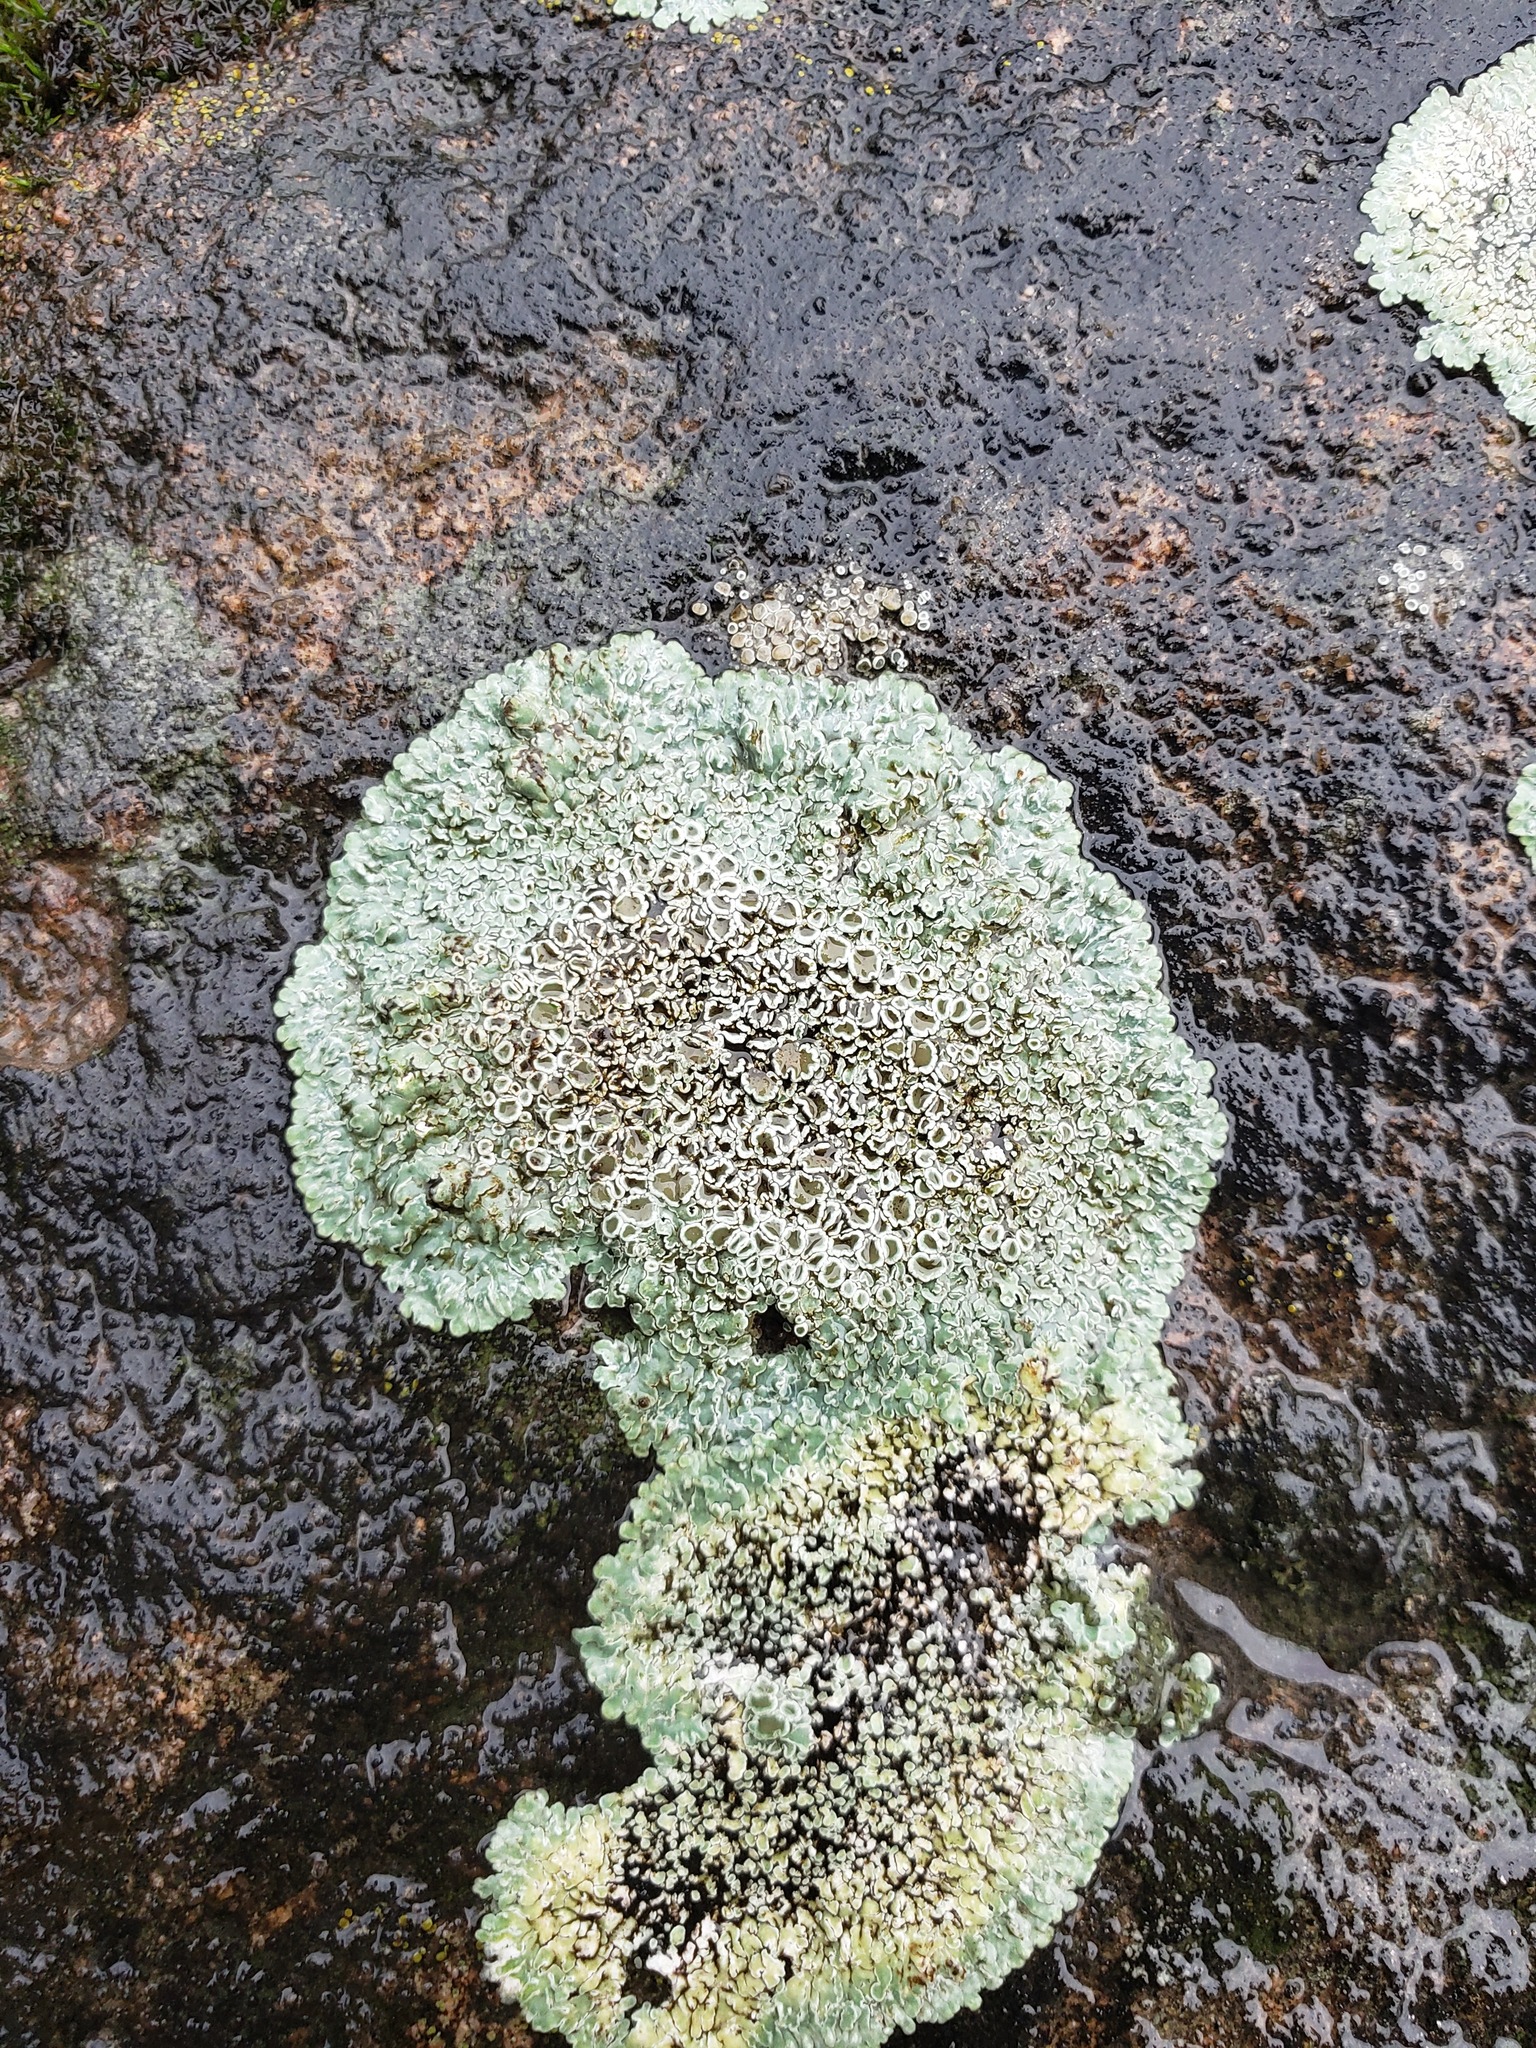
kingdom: Fungi
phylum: Ascomycota
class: Lecanoromycetes
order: Lecanorales
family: Lecanoraceae
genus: Protoparmeliopsis
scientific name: Protoparmeliopsis muralis
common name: Stonewall rim lichen
